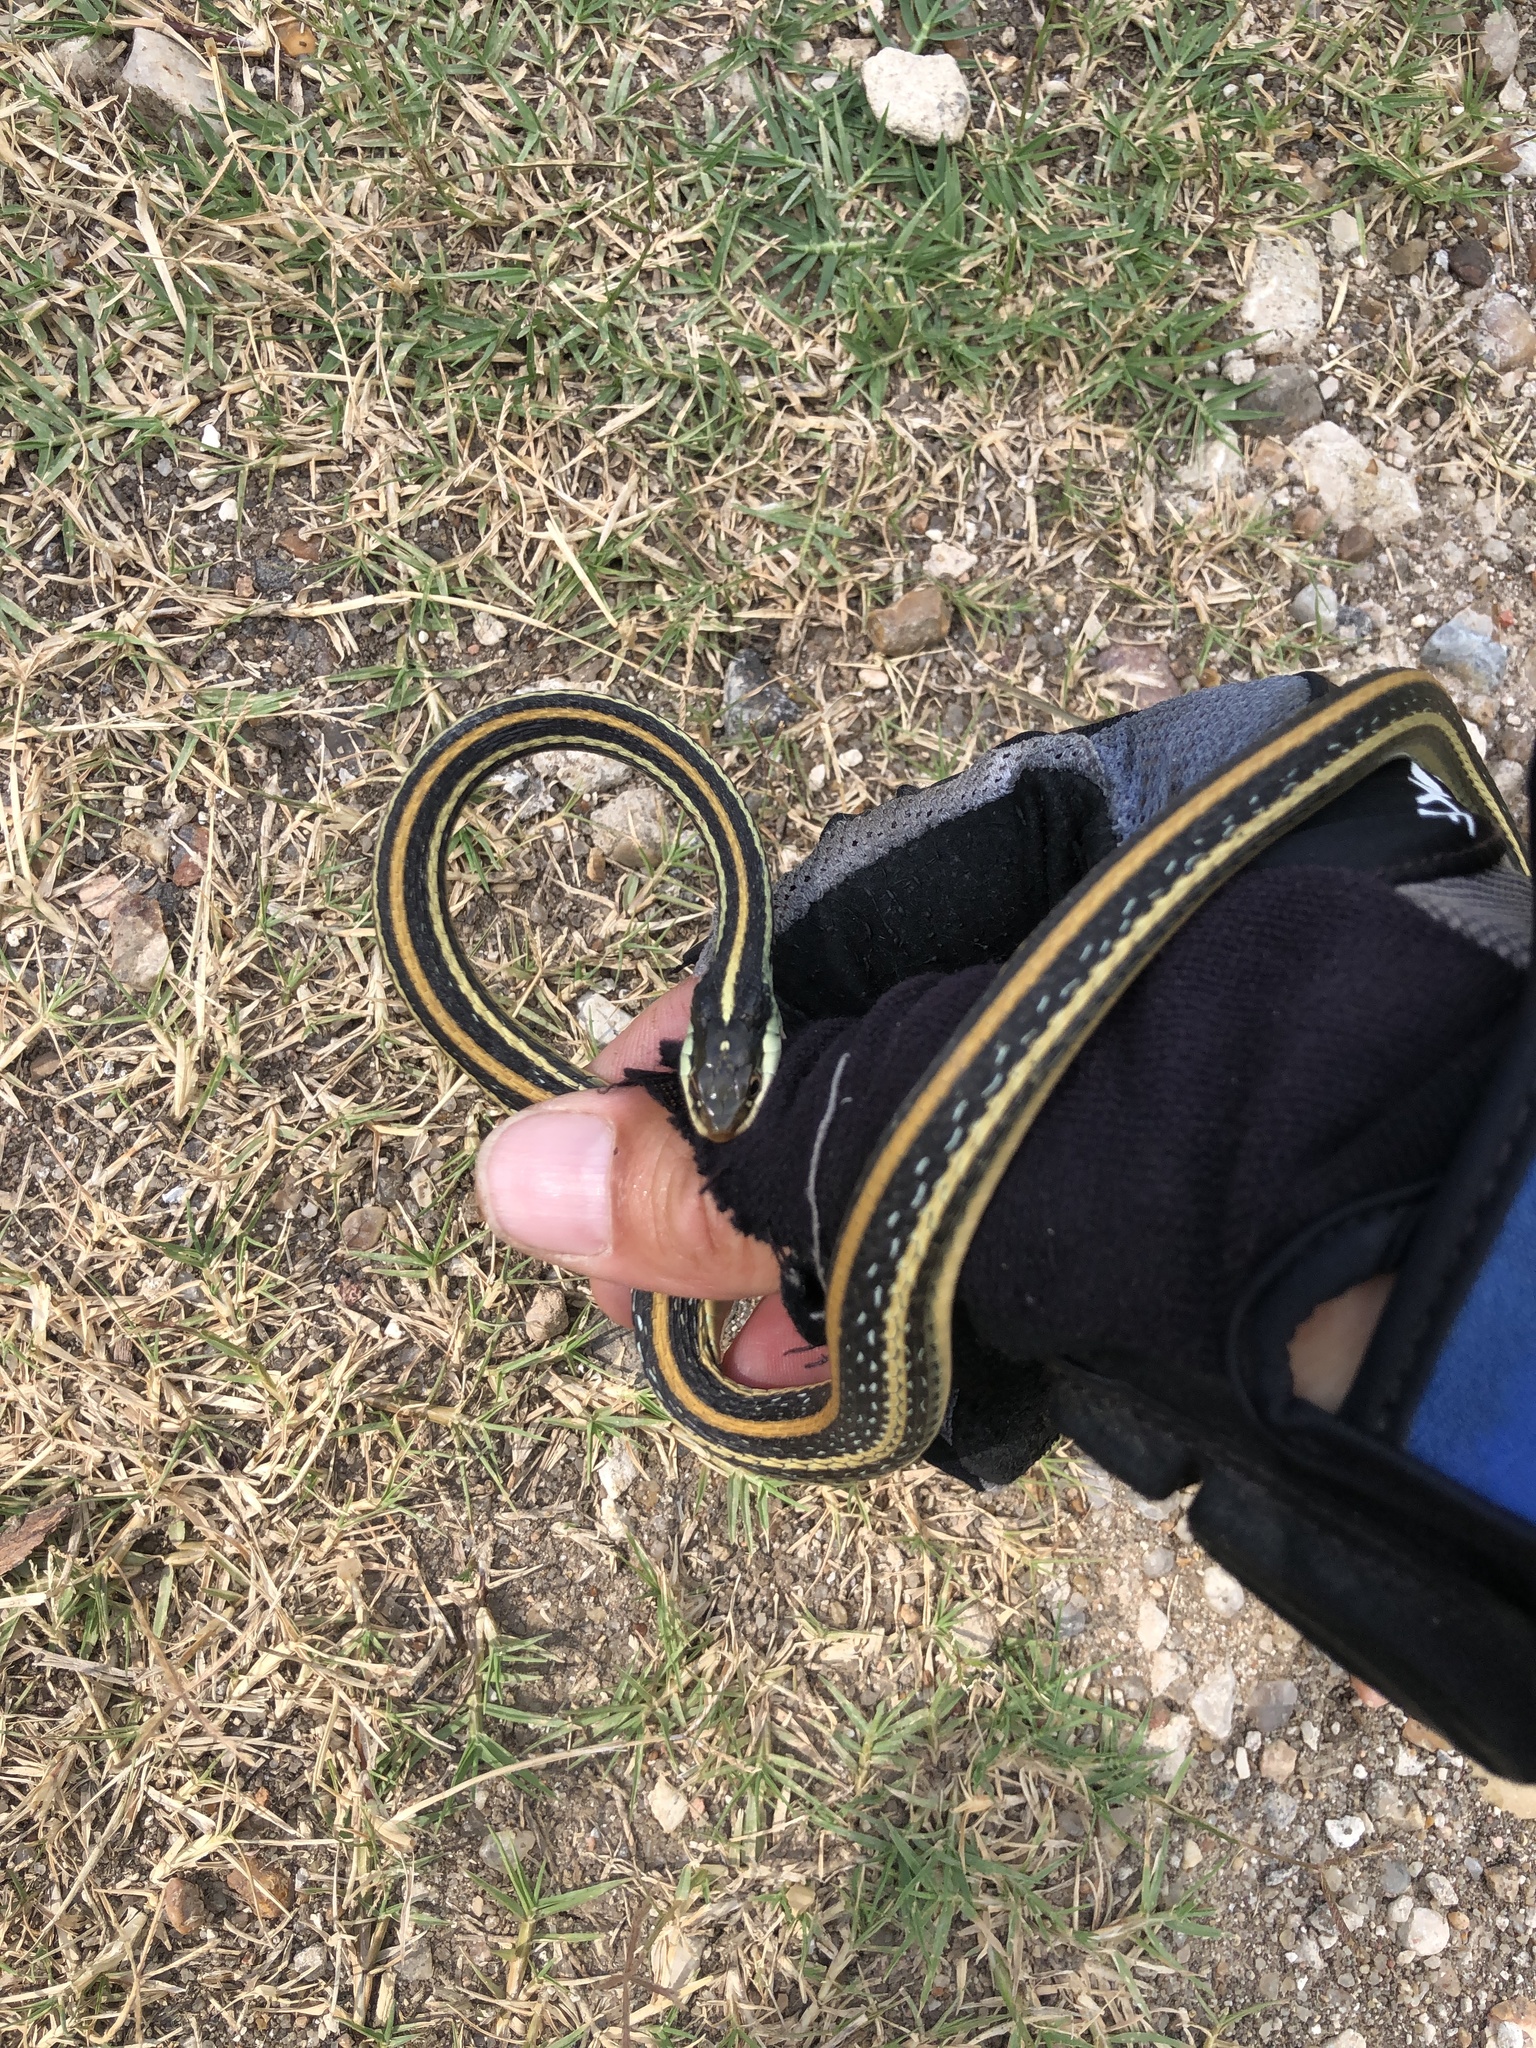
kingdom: Animalia
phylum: Chordata
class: Squamata
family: Colubridae
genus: Thamnophis
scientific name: Thamnophis proximus
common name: Western ribbon snake
